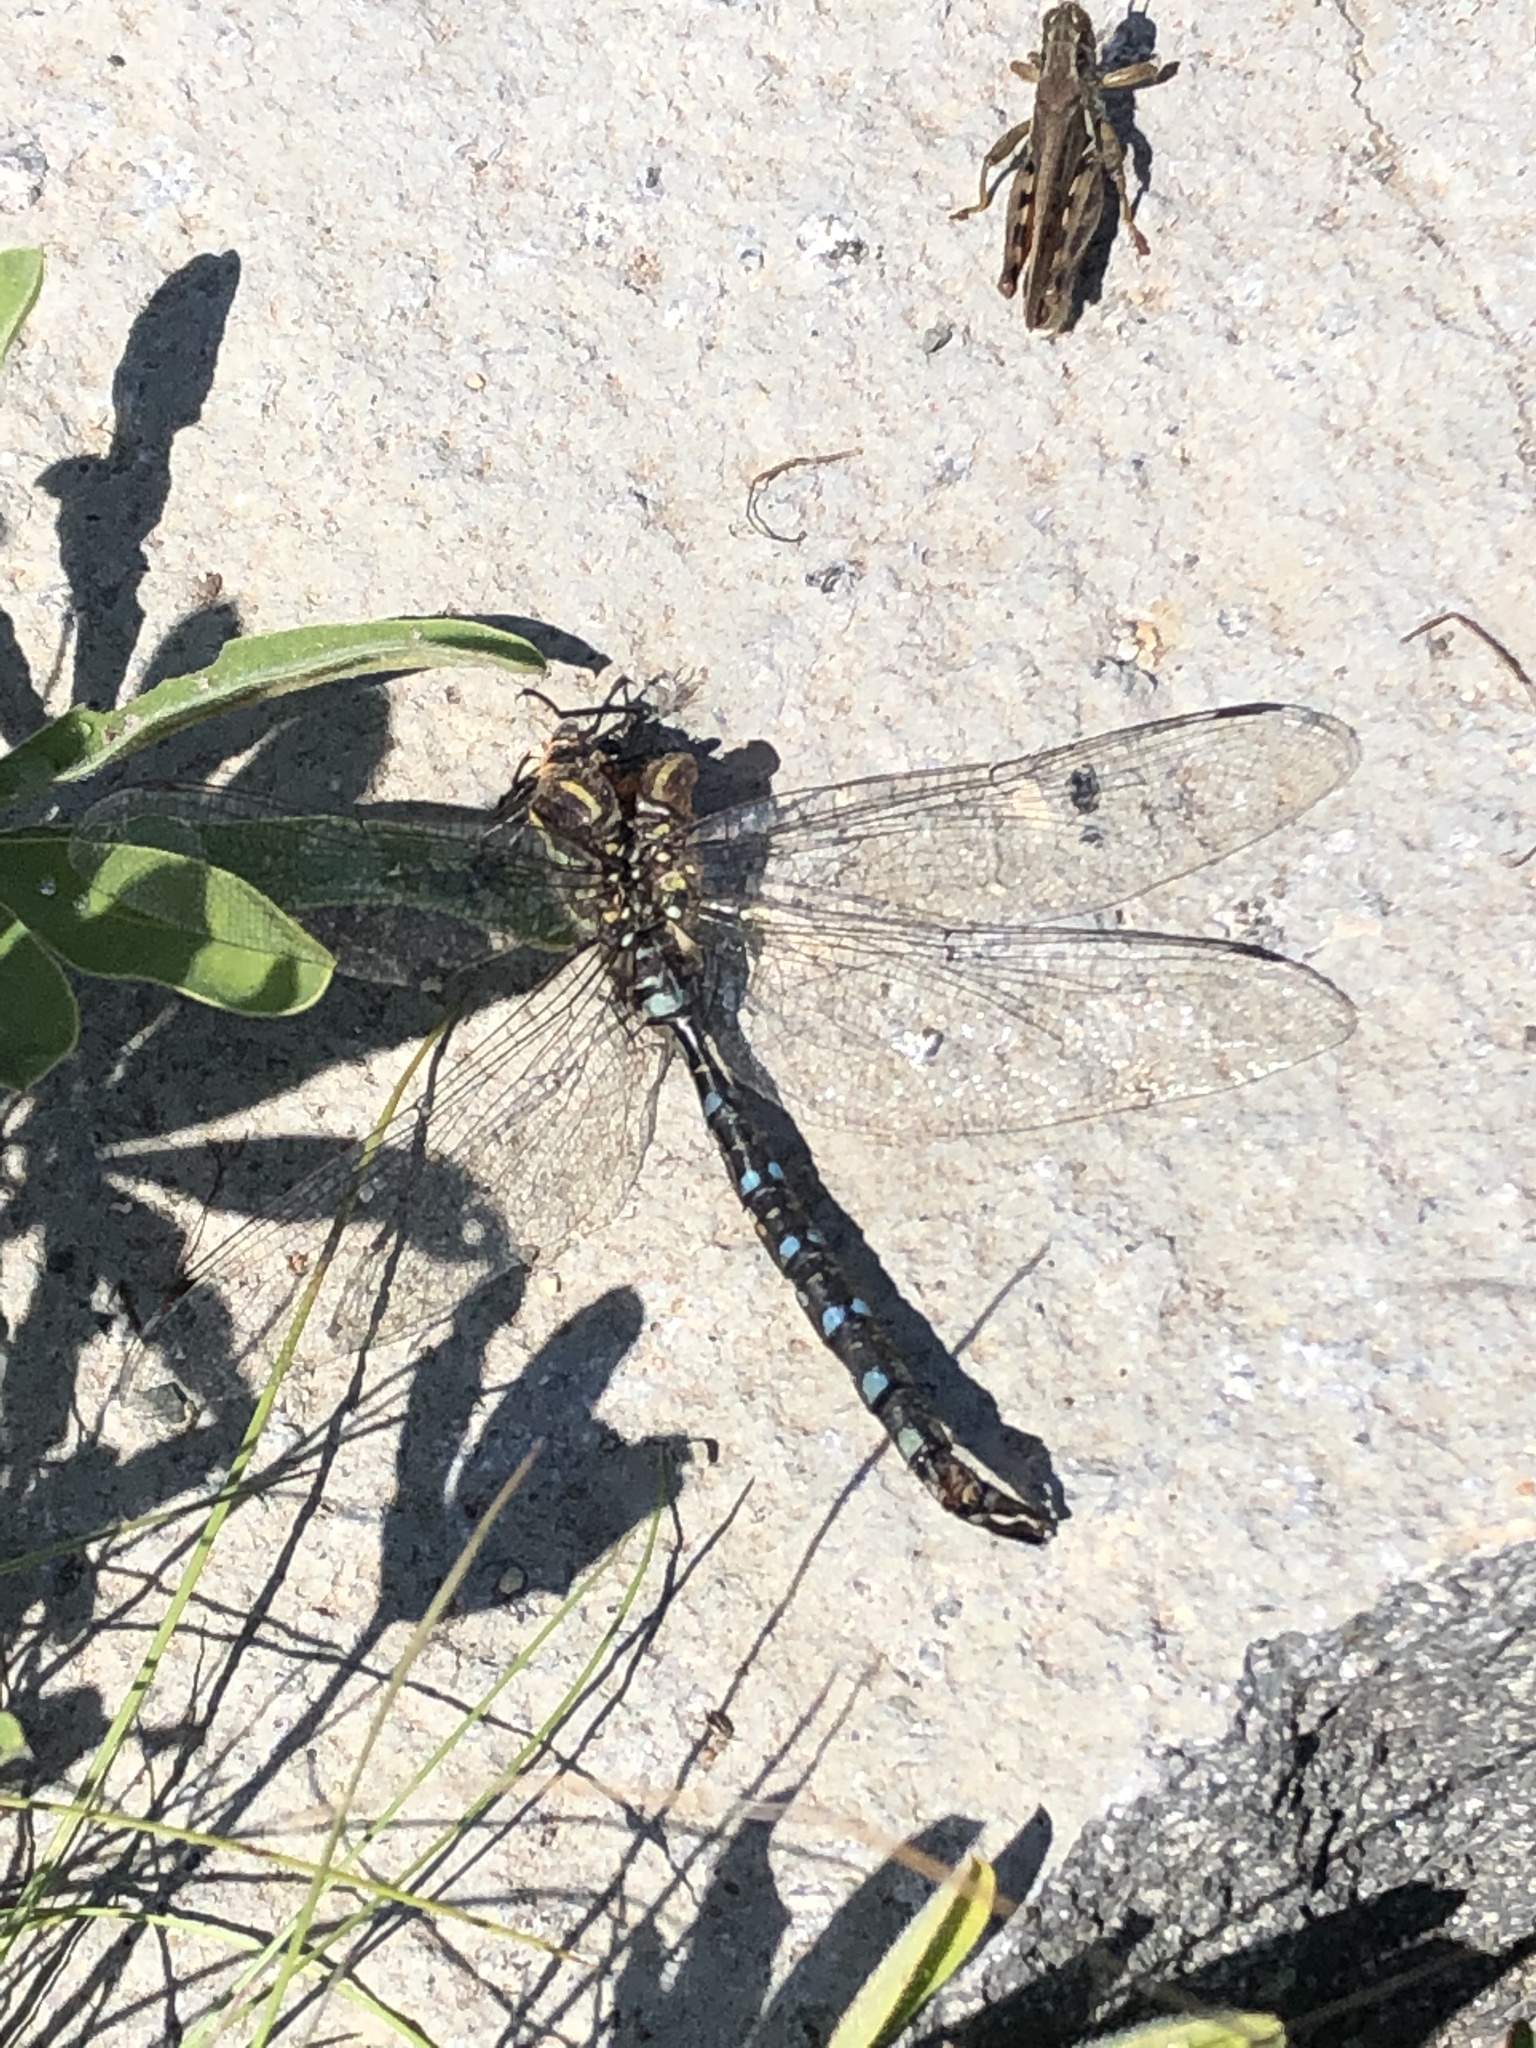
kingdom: Animalia
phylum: Arthropoda
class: Insecta
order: Odonata
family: Aeshnidae
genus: Aeshna
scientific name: Aeshna palmata
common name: Paddle-tailed darner
